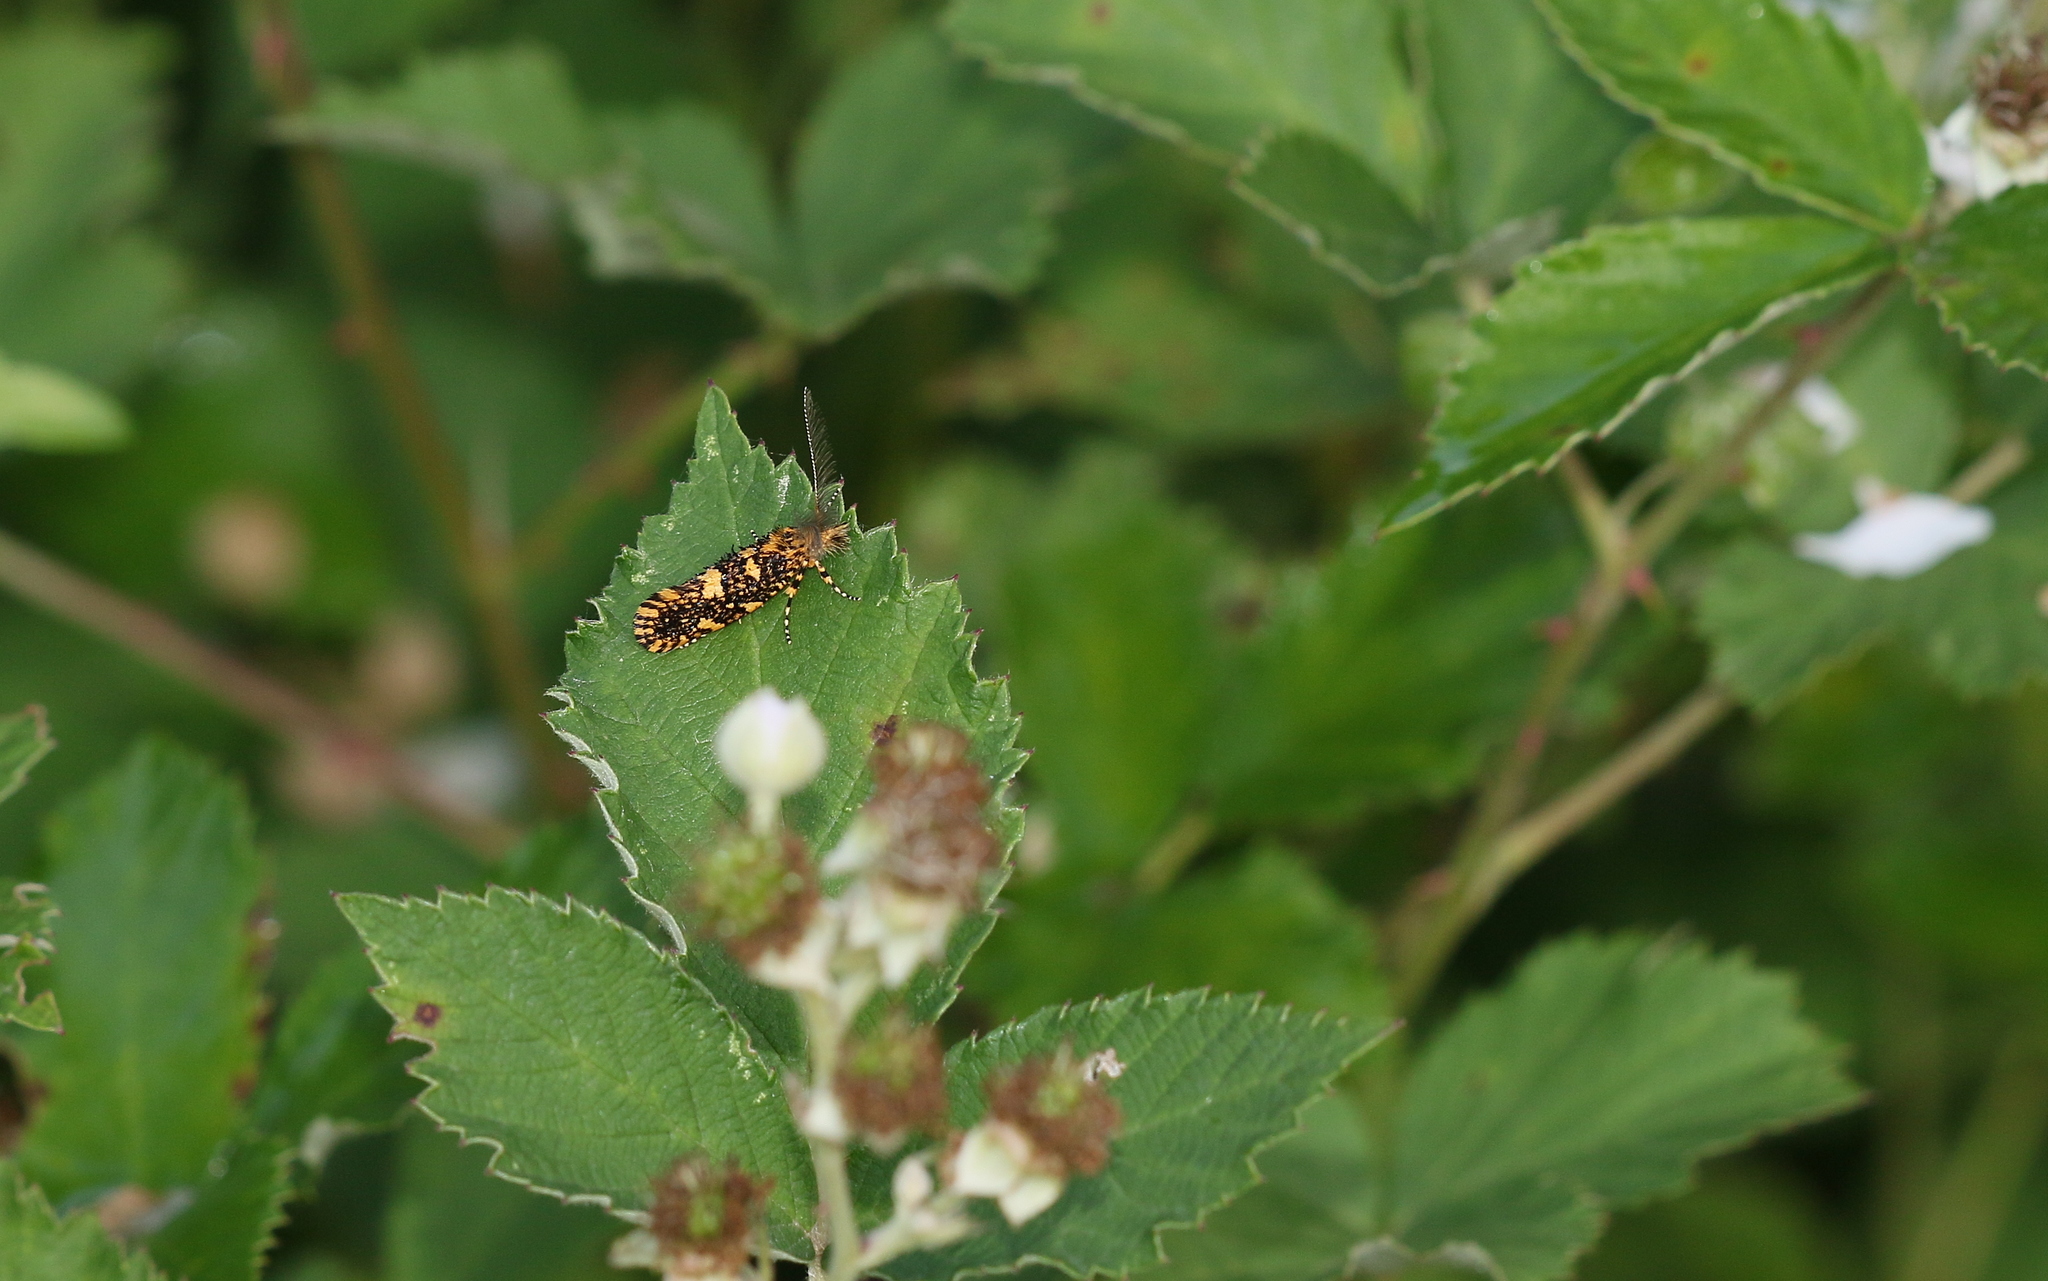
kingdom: Animalia
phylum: Arthropoda
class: Insecta
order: Lepidoptera
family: Tineidae
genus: Euplocamus
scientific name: Euplocamus ophisa
